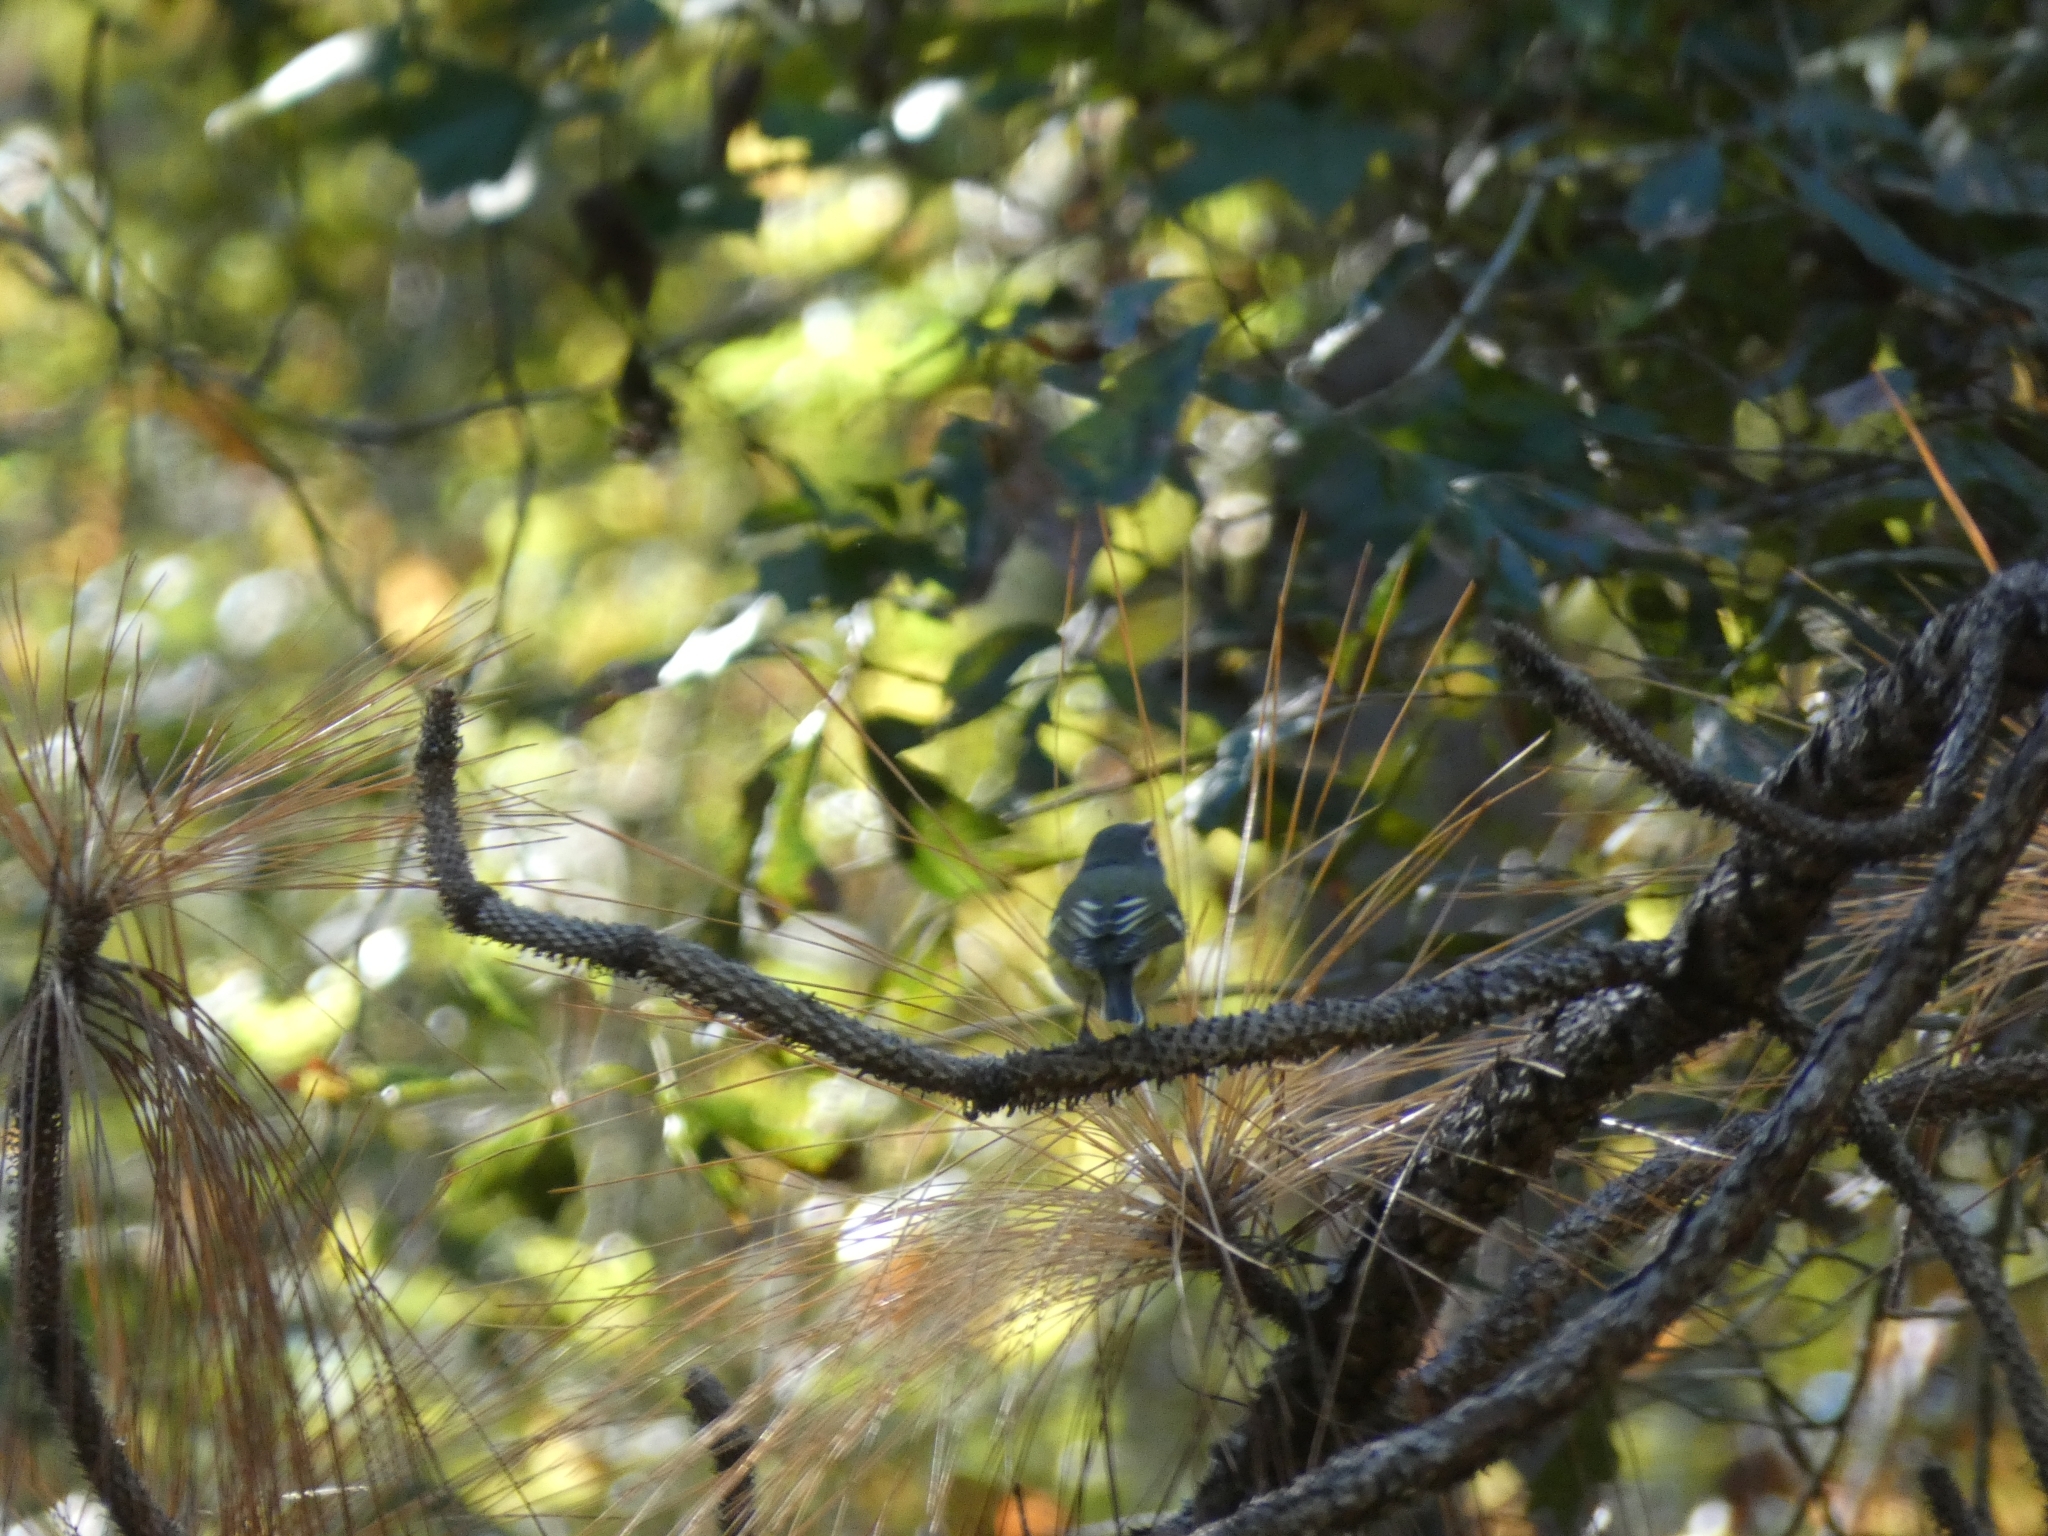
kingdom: Animalia
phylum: Chordata
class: Aves
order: Passeriformes
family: Vireonidae
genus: Vireo
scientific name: Vireo solitarius
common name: Blue-headed vireo
